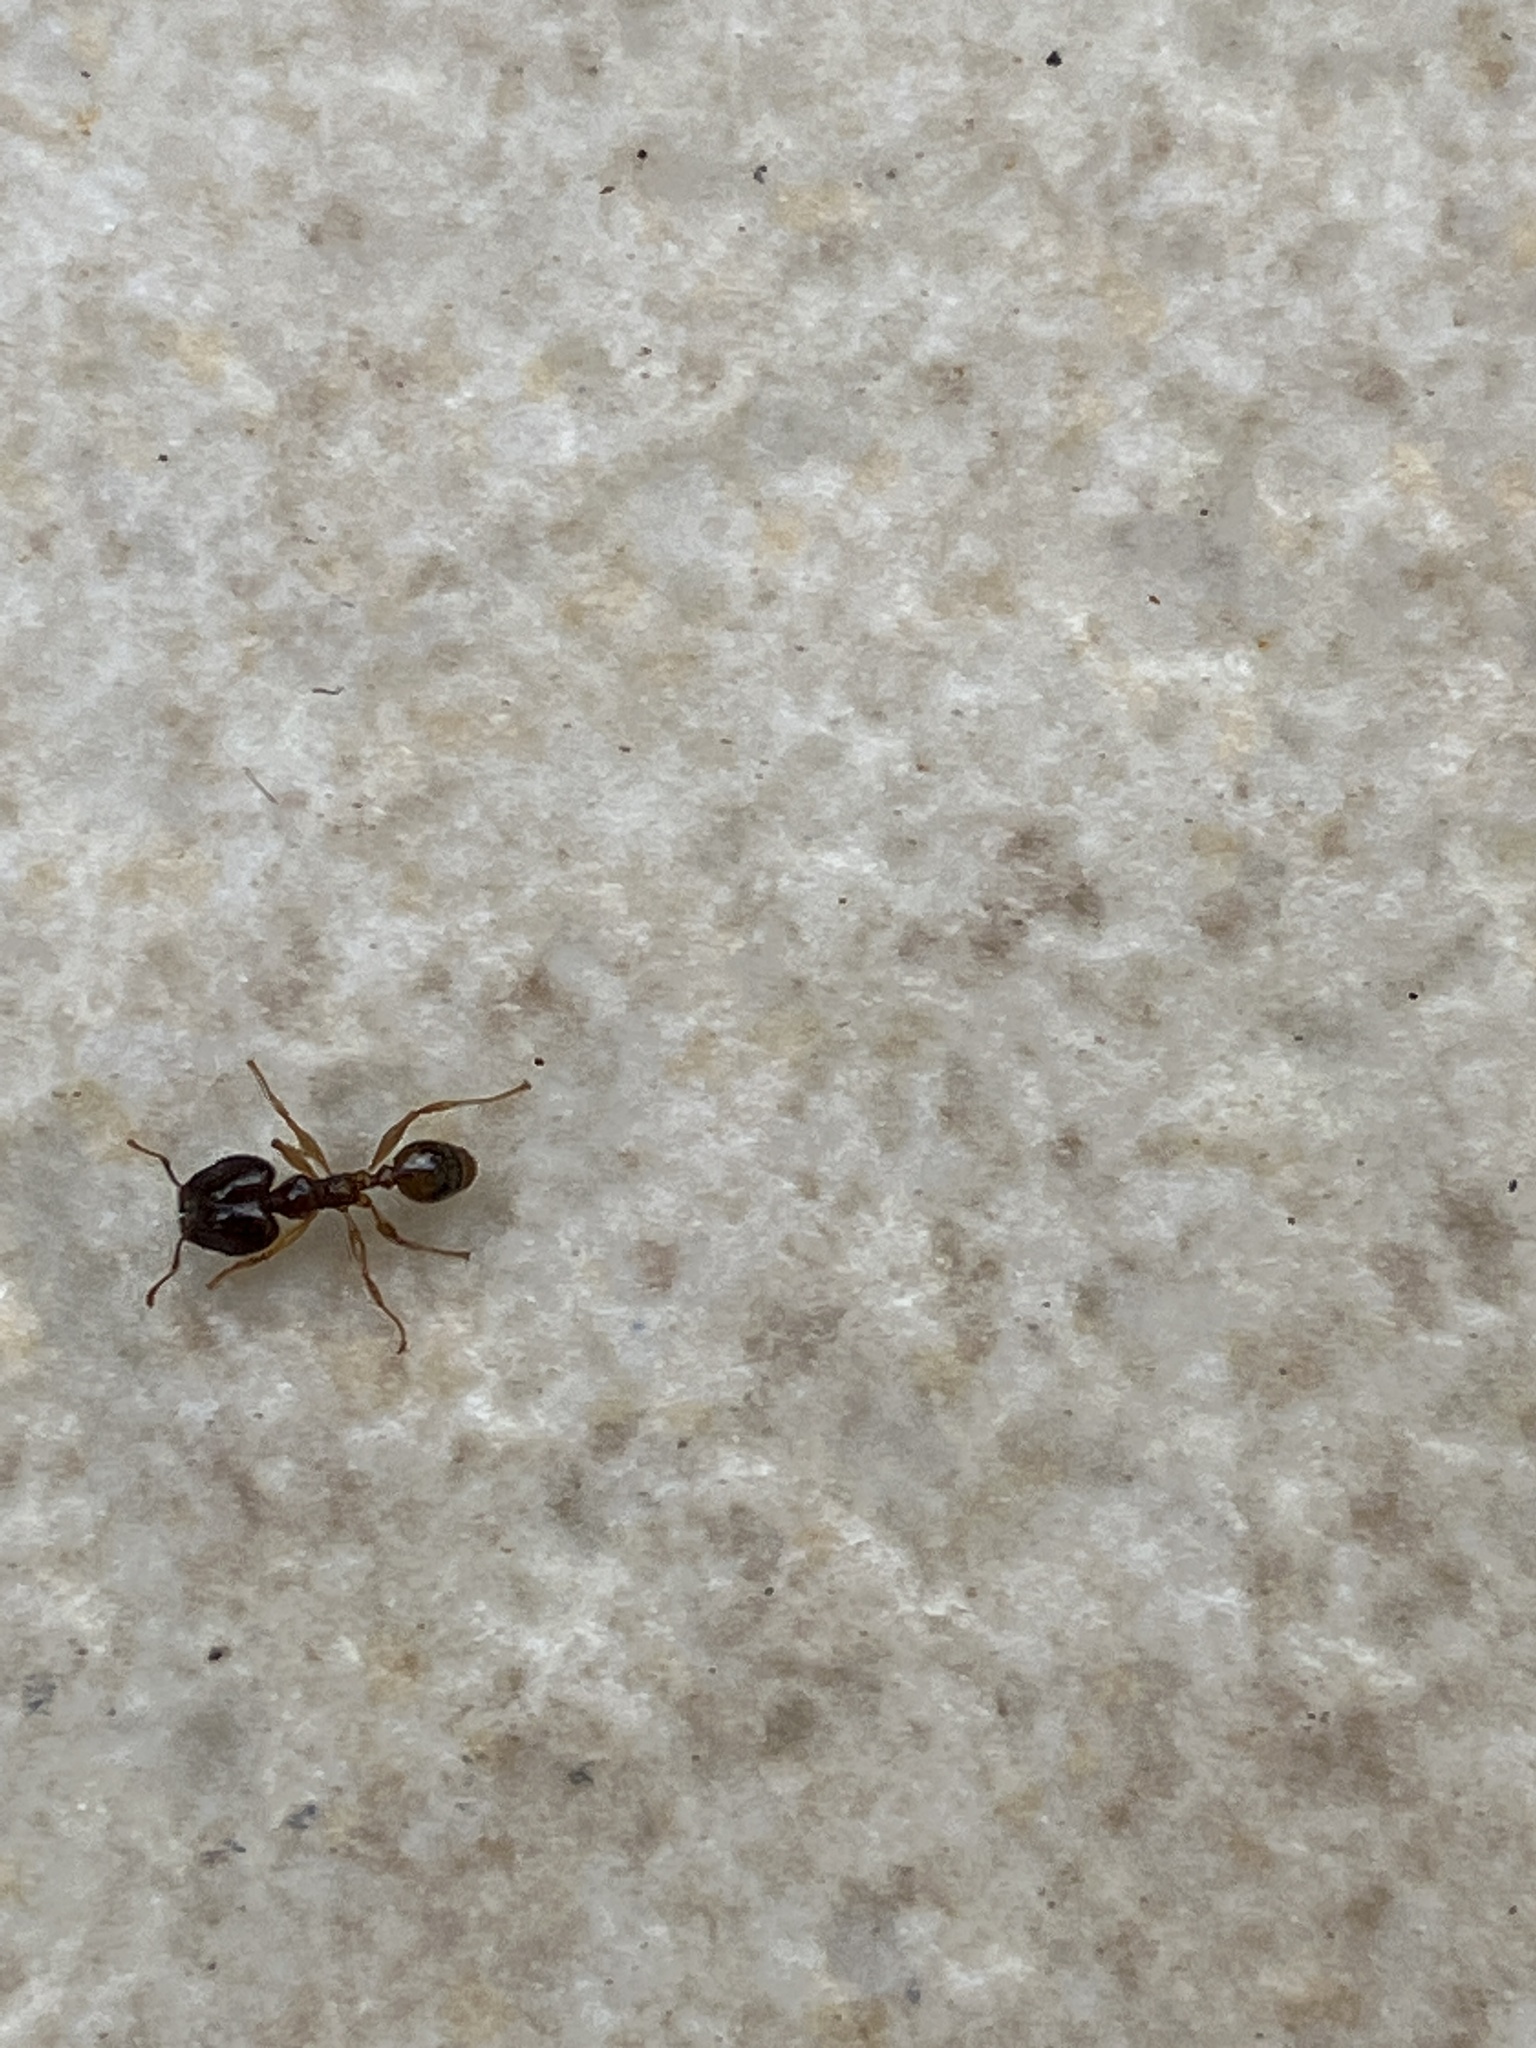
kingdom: Animalia
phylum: Arthropoda
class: Insecta
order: Hymenoptera
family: Formicidae
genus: Pheidole
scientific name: Pheidole megacephala
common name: Bigheaded ant
